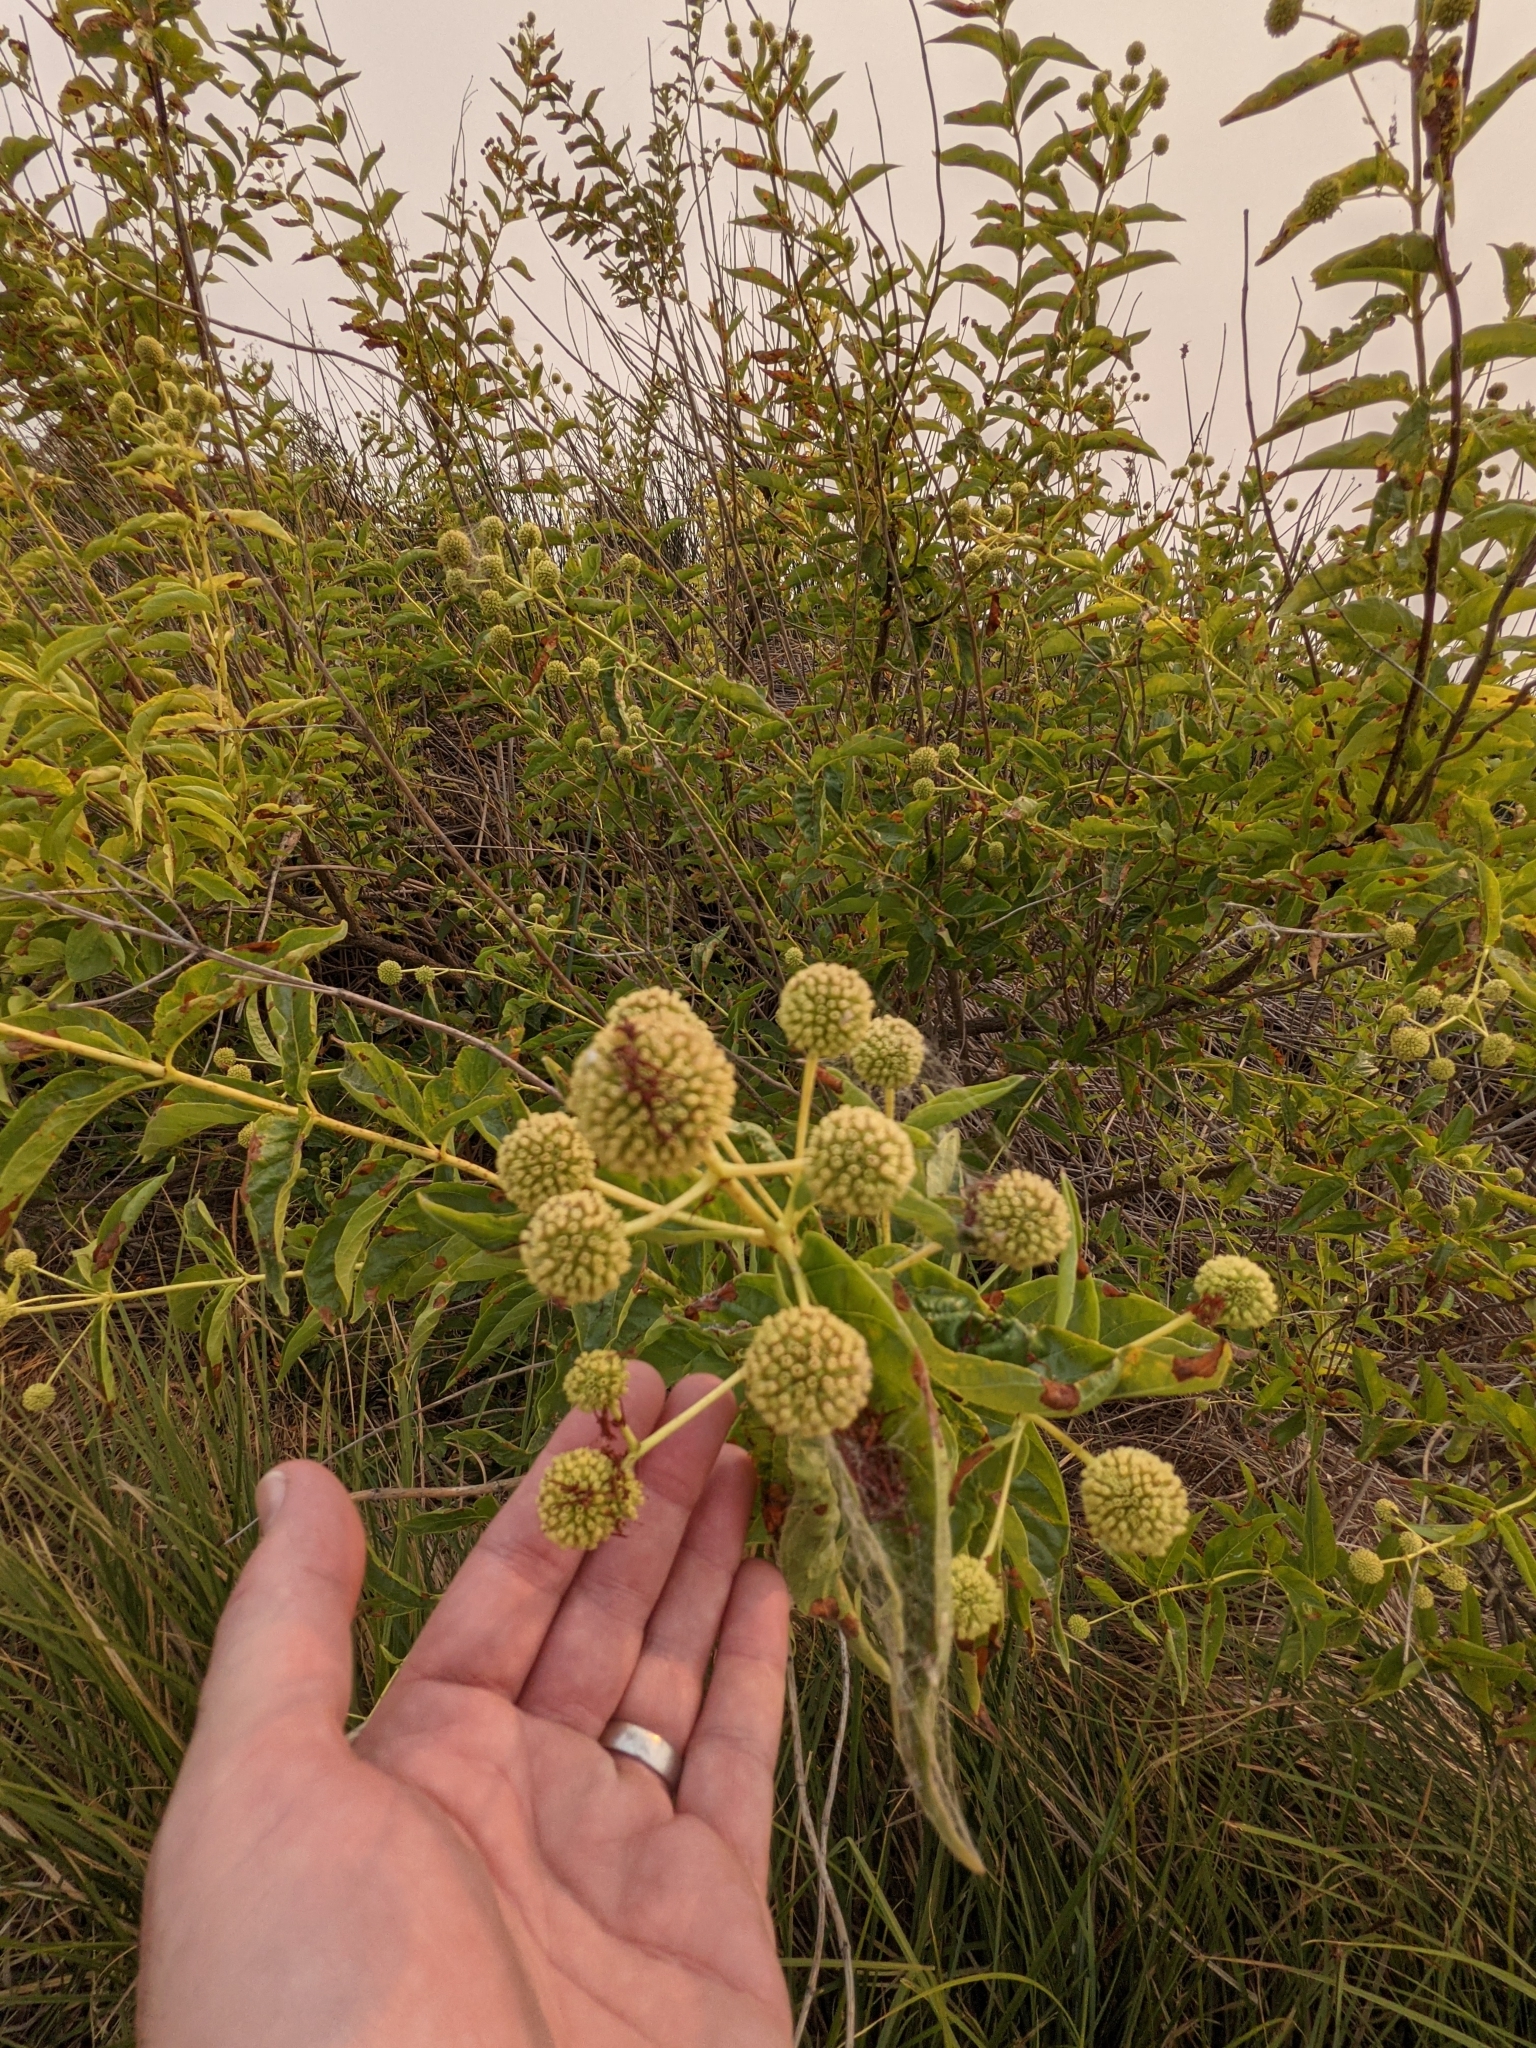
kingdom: Plantae
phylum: Tracheophyta
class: Magnoliopsida
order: Gentianales
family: Rubiaceae
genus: Cephalanthus
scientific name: Cephalanthus occidentalis
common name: Button-willow
